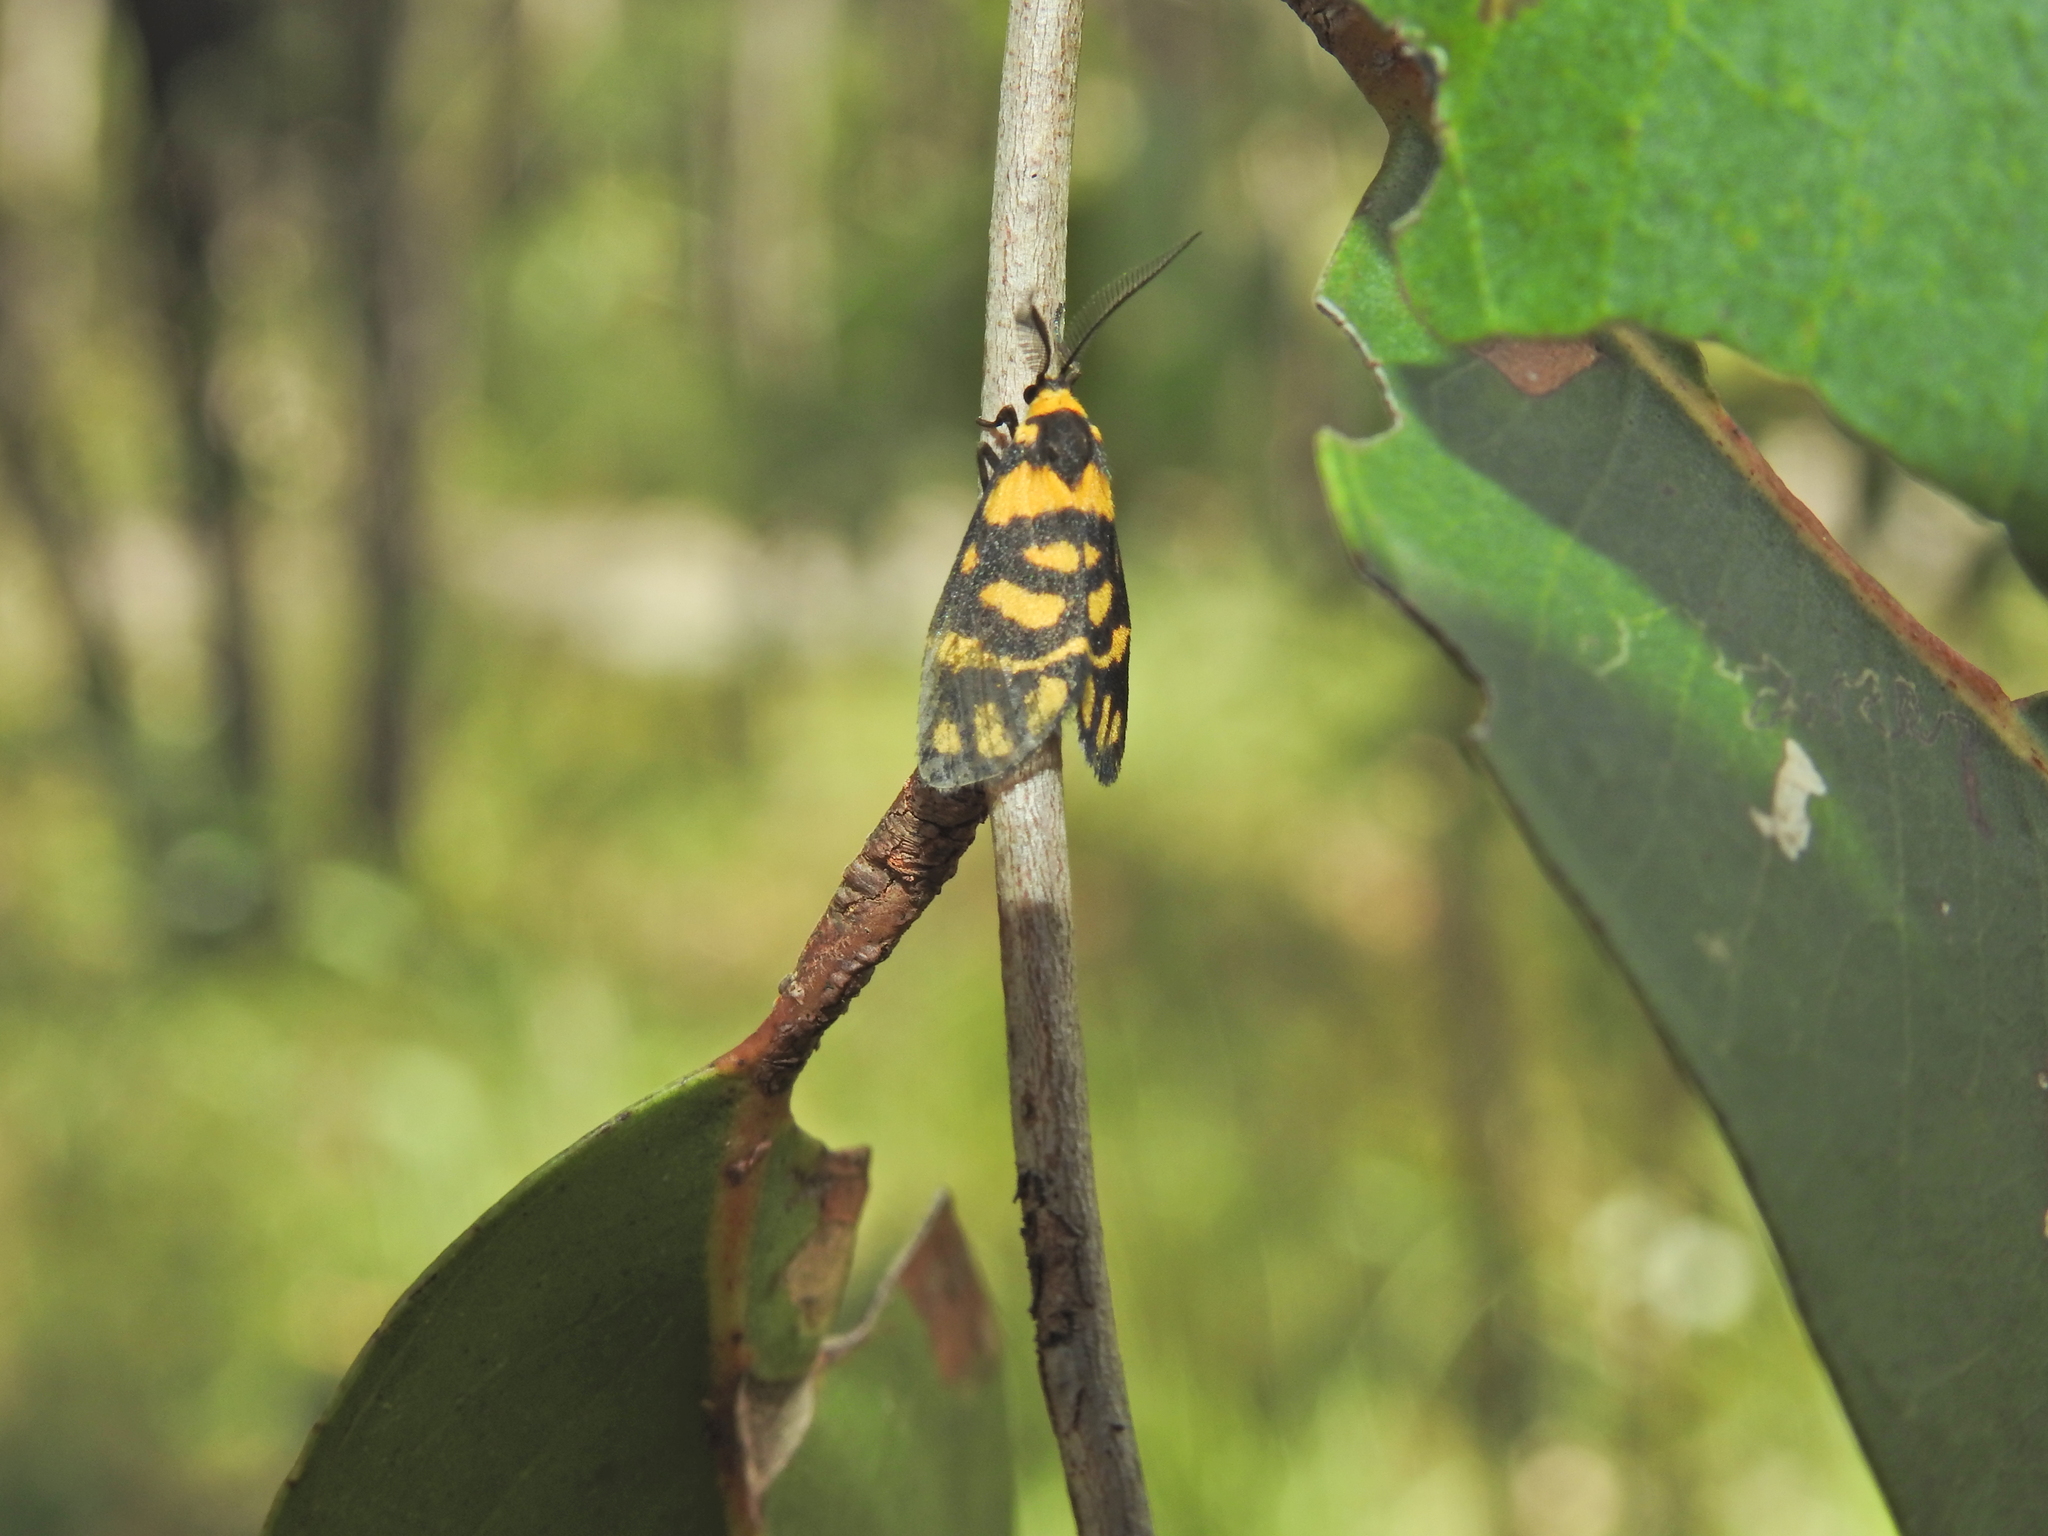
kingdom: Animalia
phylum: Arthropoda
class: Insecta
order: Lepidoptera
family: Erebidae
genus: Asura
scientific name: Asura lydia
